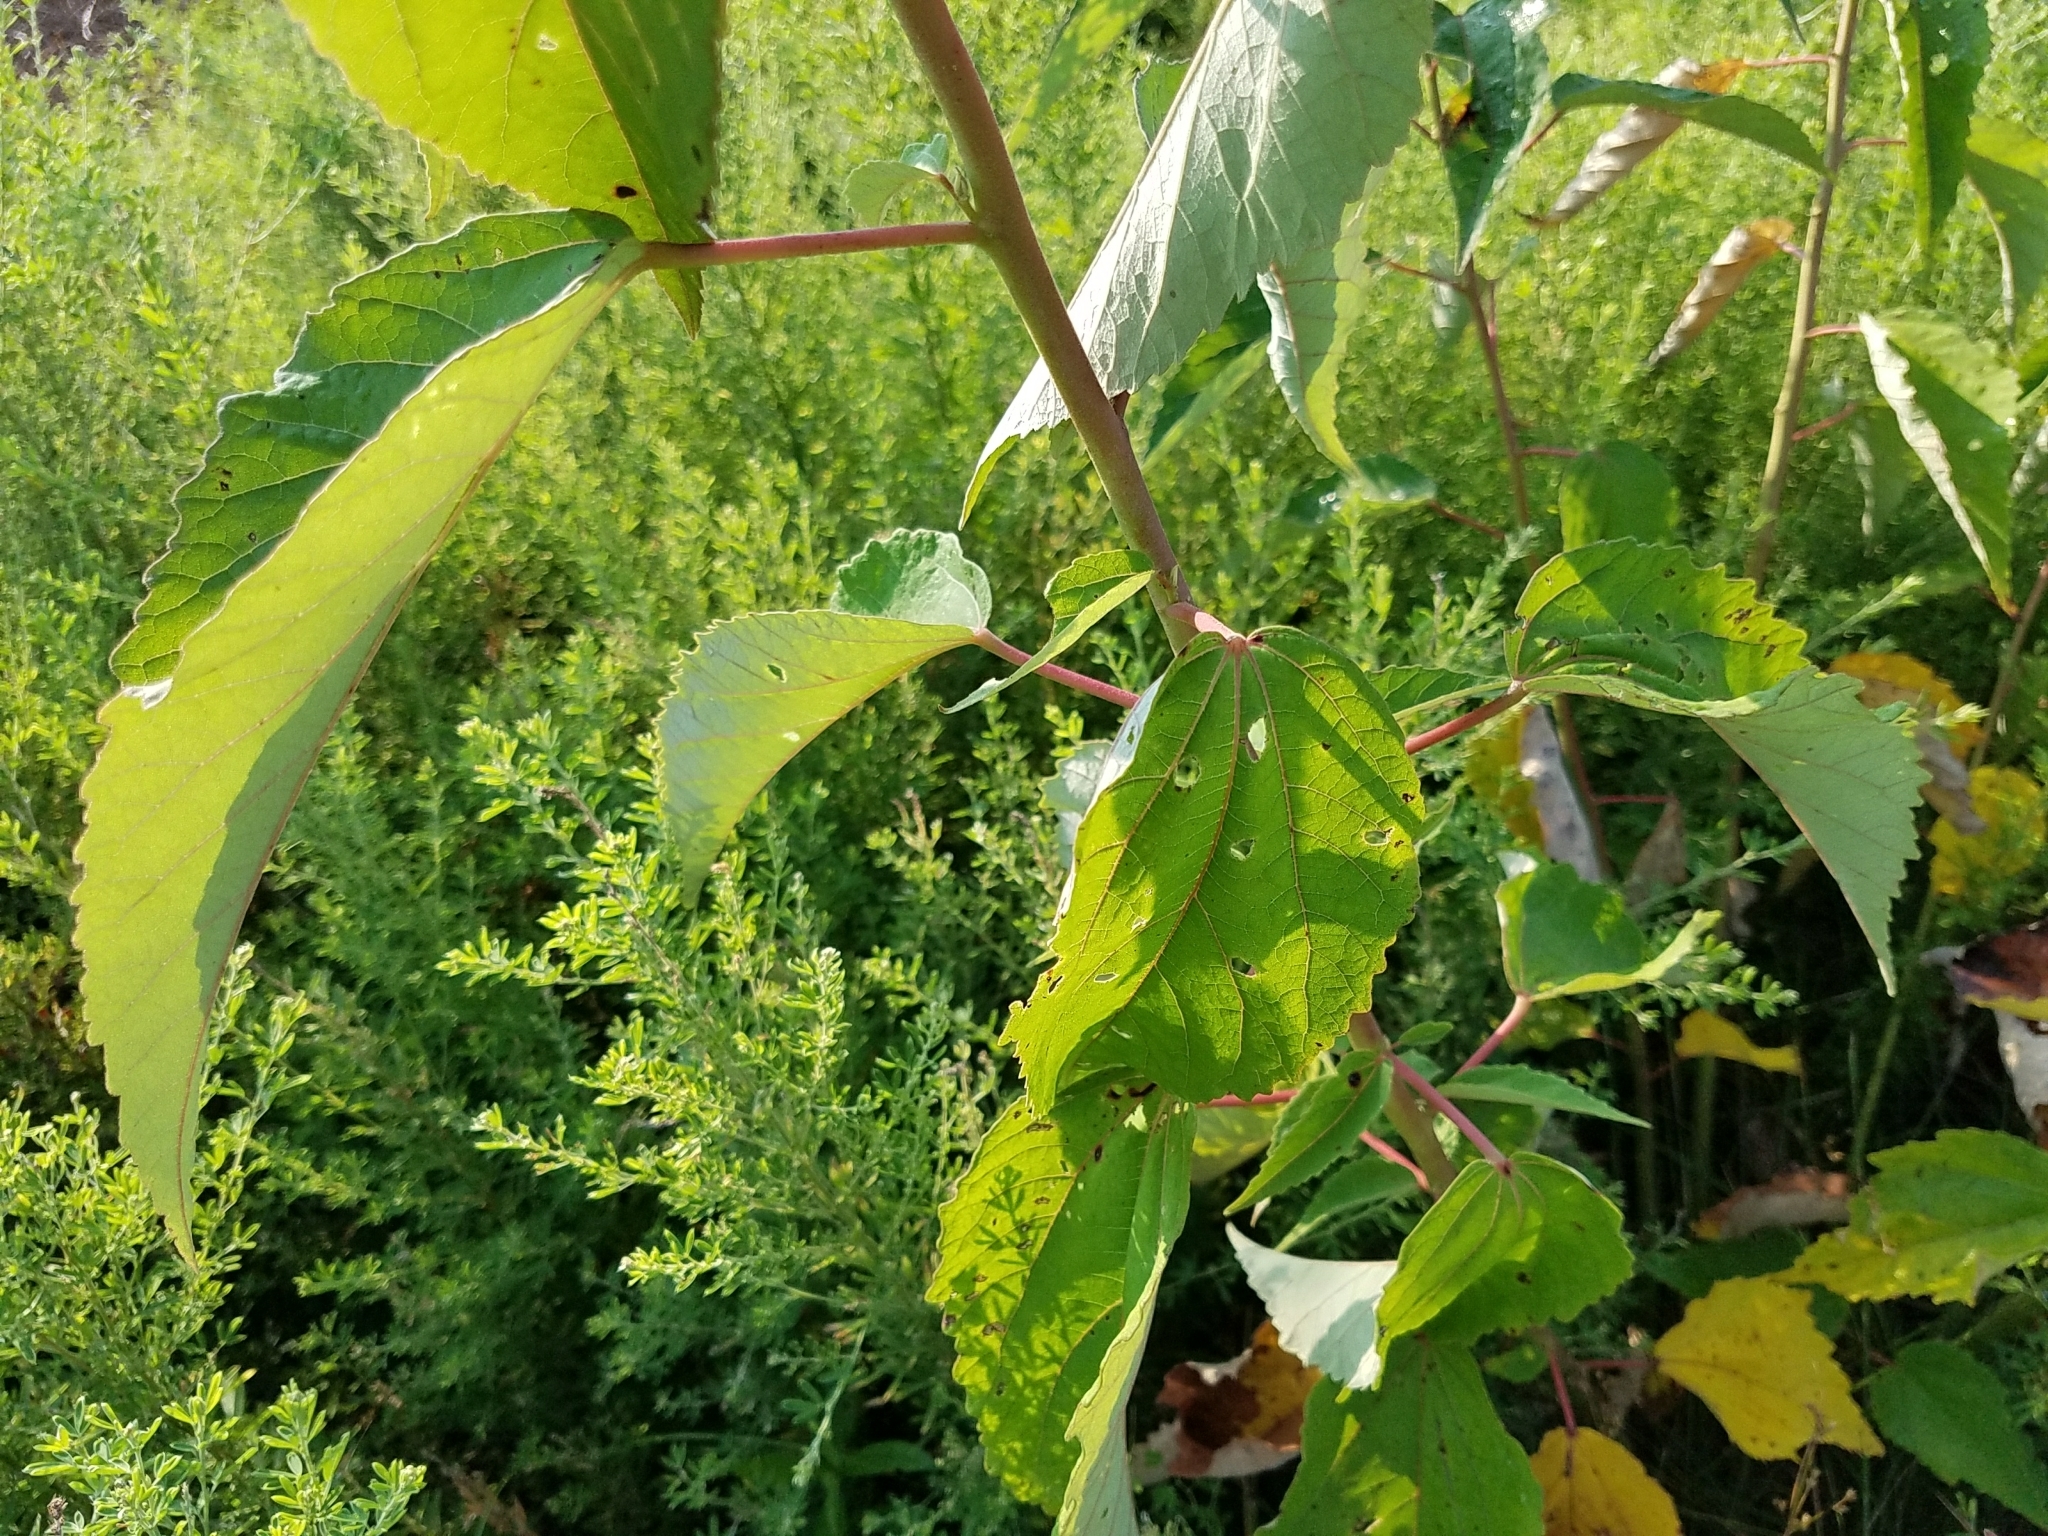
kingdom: Plantae
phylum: Tracheophyta
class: Magnoliopsida
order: Malvales
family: Malvaceae
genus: Hibiscus
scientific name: Hibiscus moscheutos
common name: Common rose-mallow
